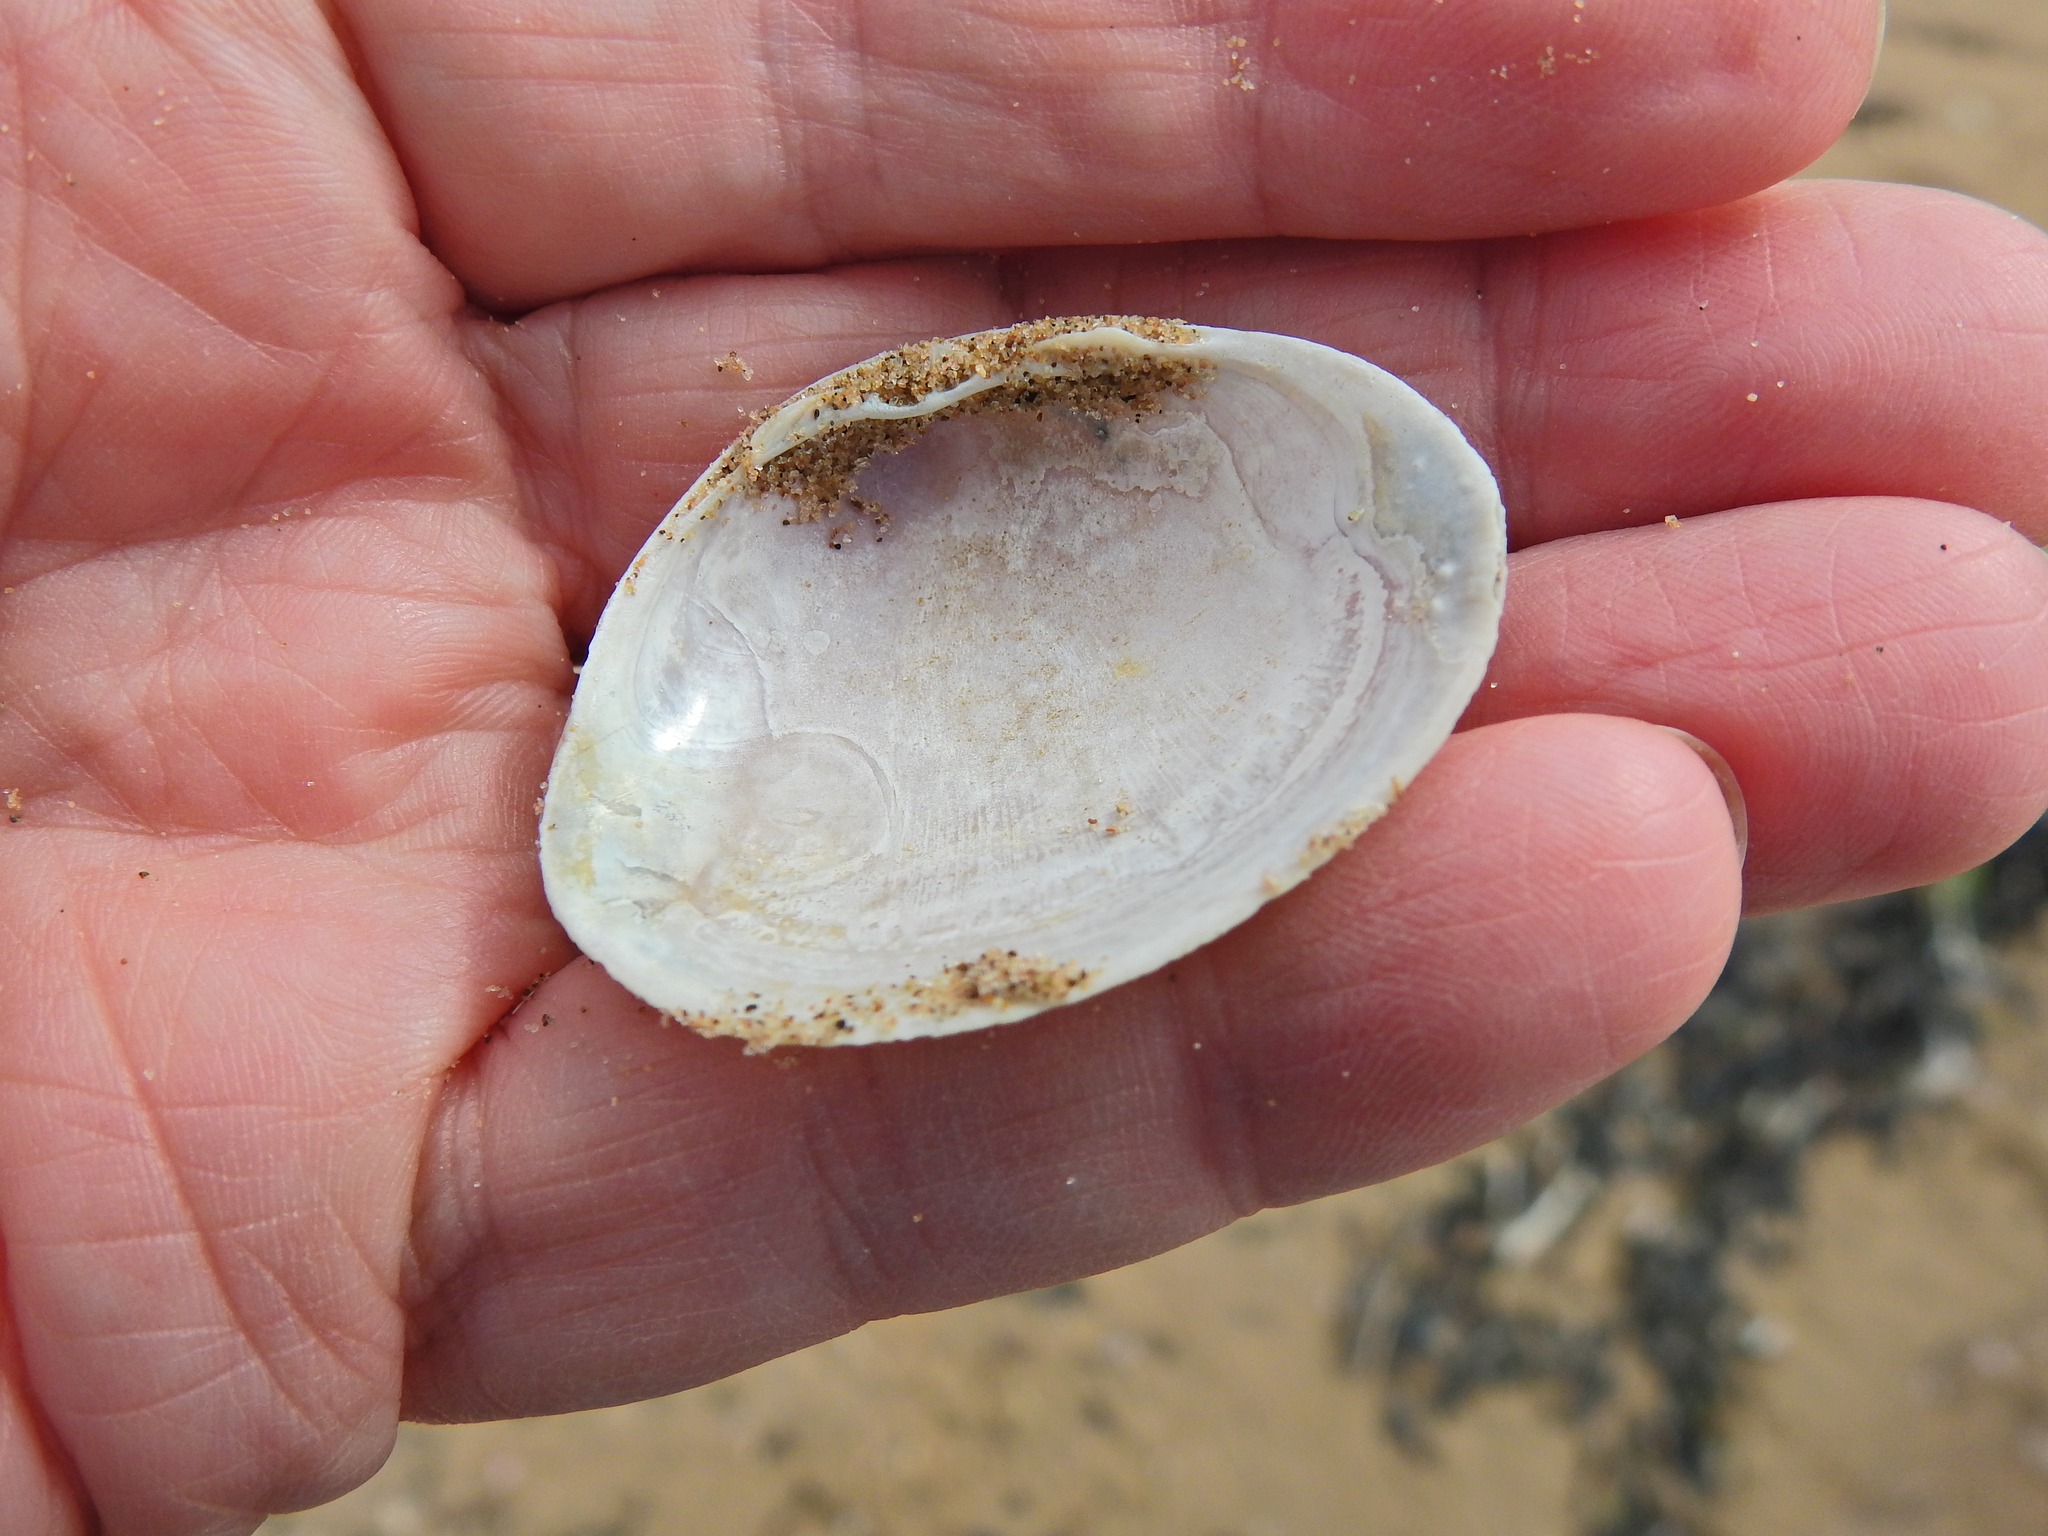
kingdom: Animalia
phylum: Mollusca
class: Bivalvia
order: Venerida
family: Mactridae
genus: Mactra
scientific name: Mactra stultorum
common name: Rayed trough shell
